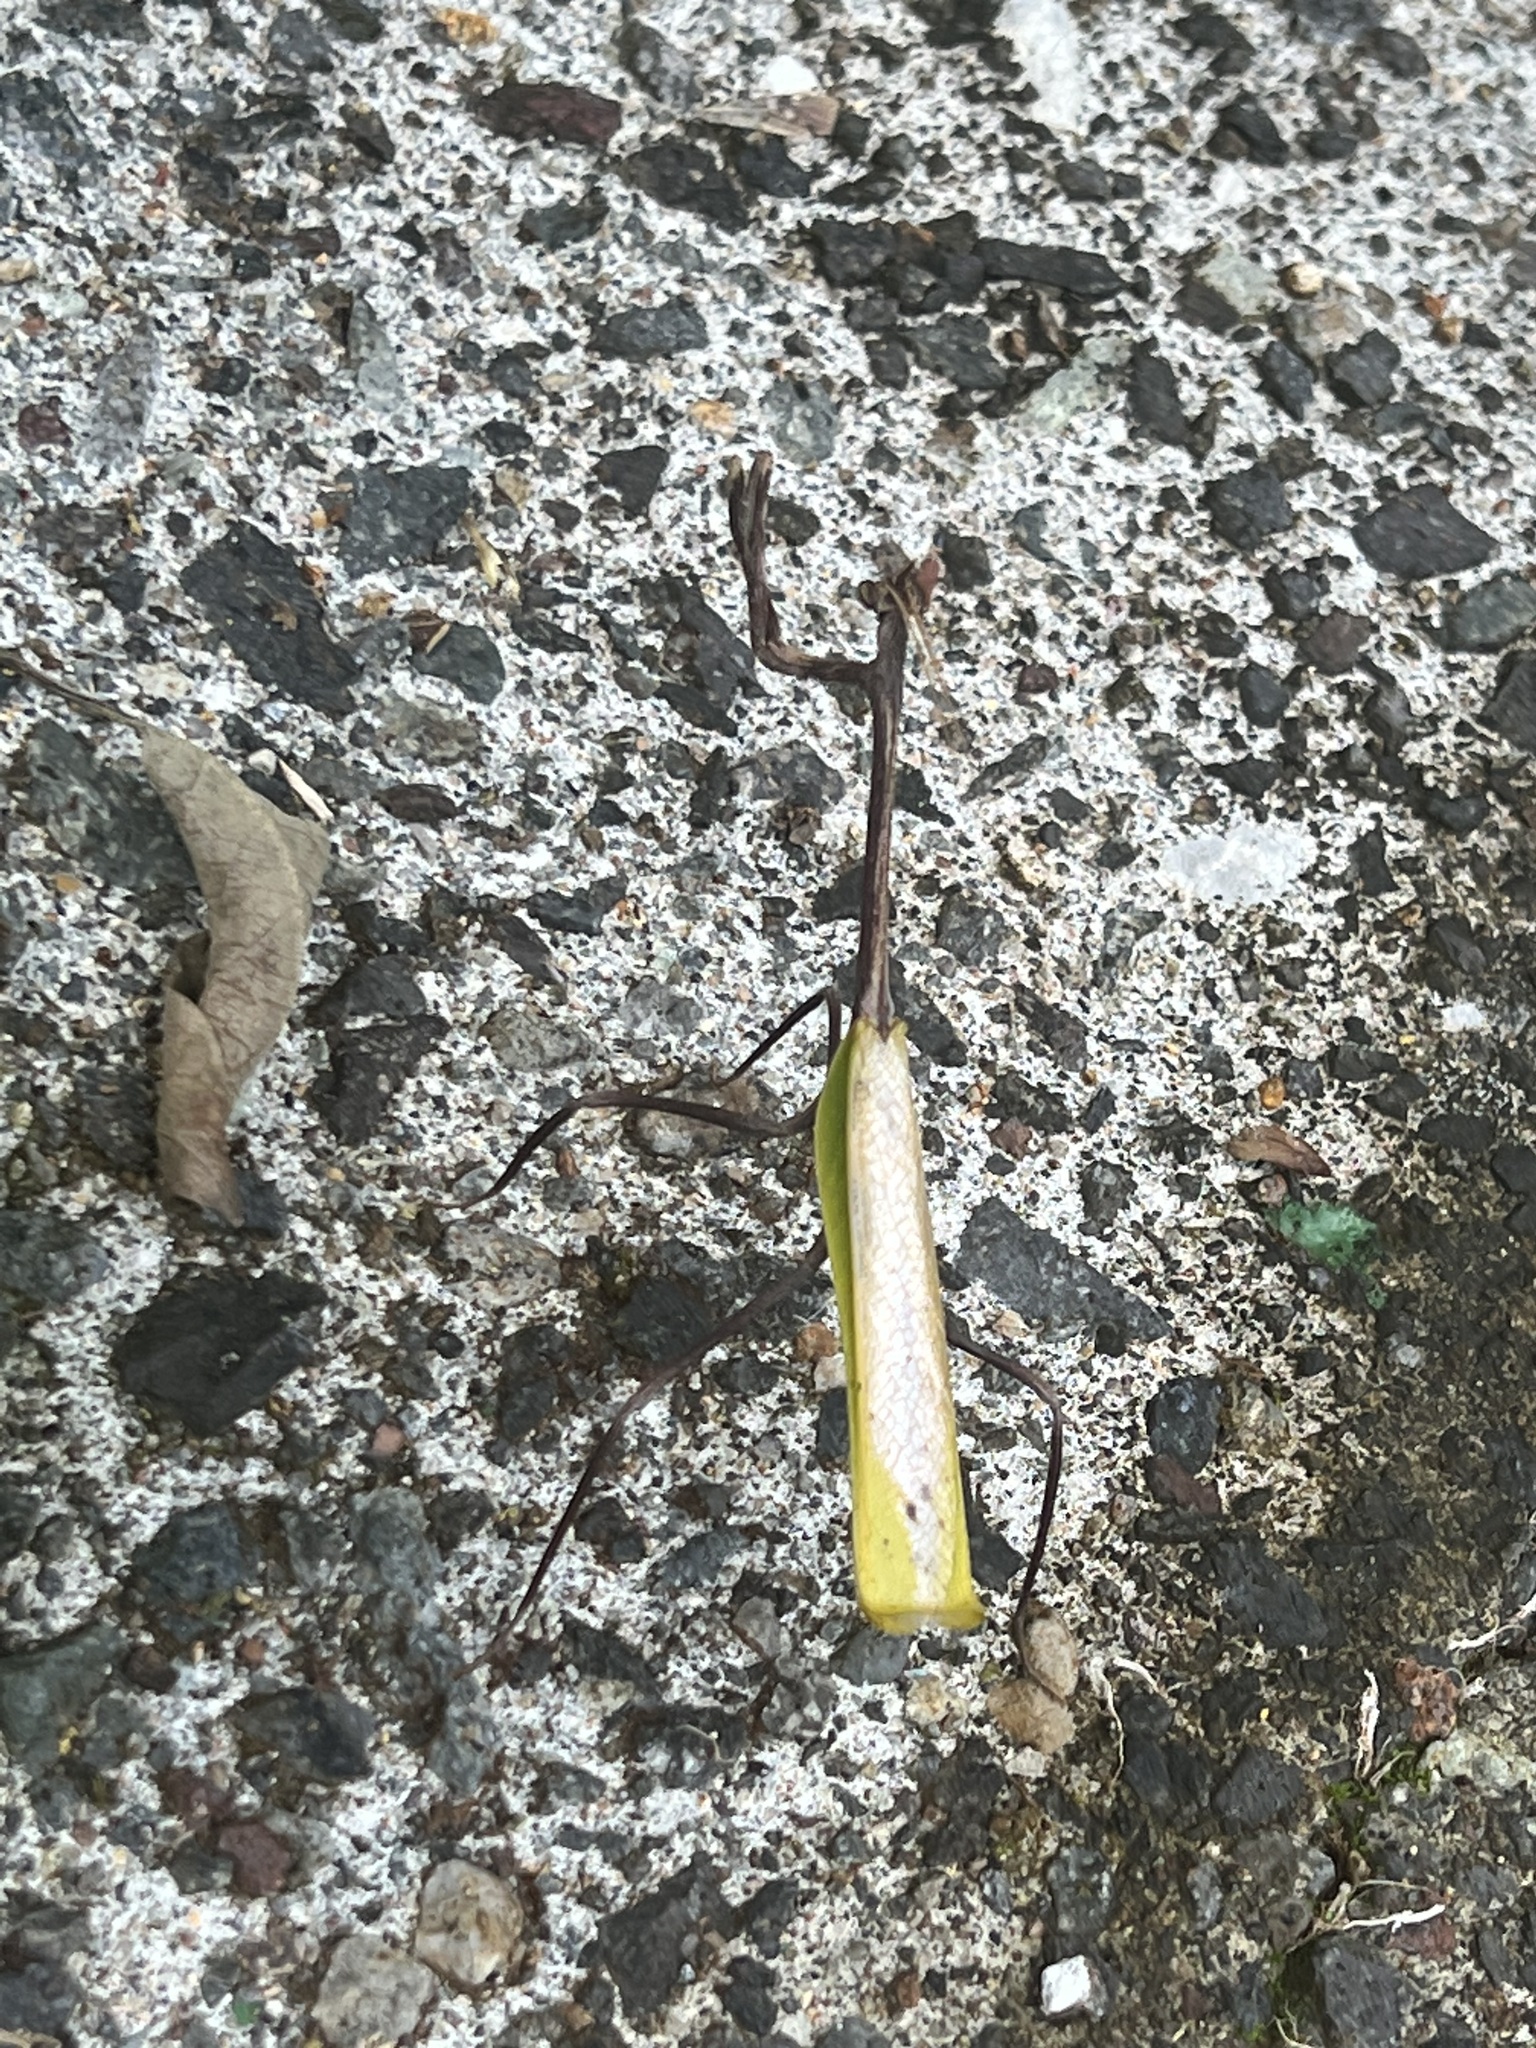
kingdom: Animalia
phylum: Arthropoda
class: Insecta
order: Mantodea
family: Mantidae
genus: Pseudovates
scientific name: Pseudovates chlorophaea
